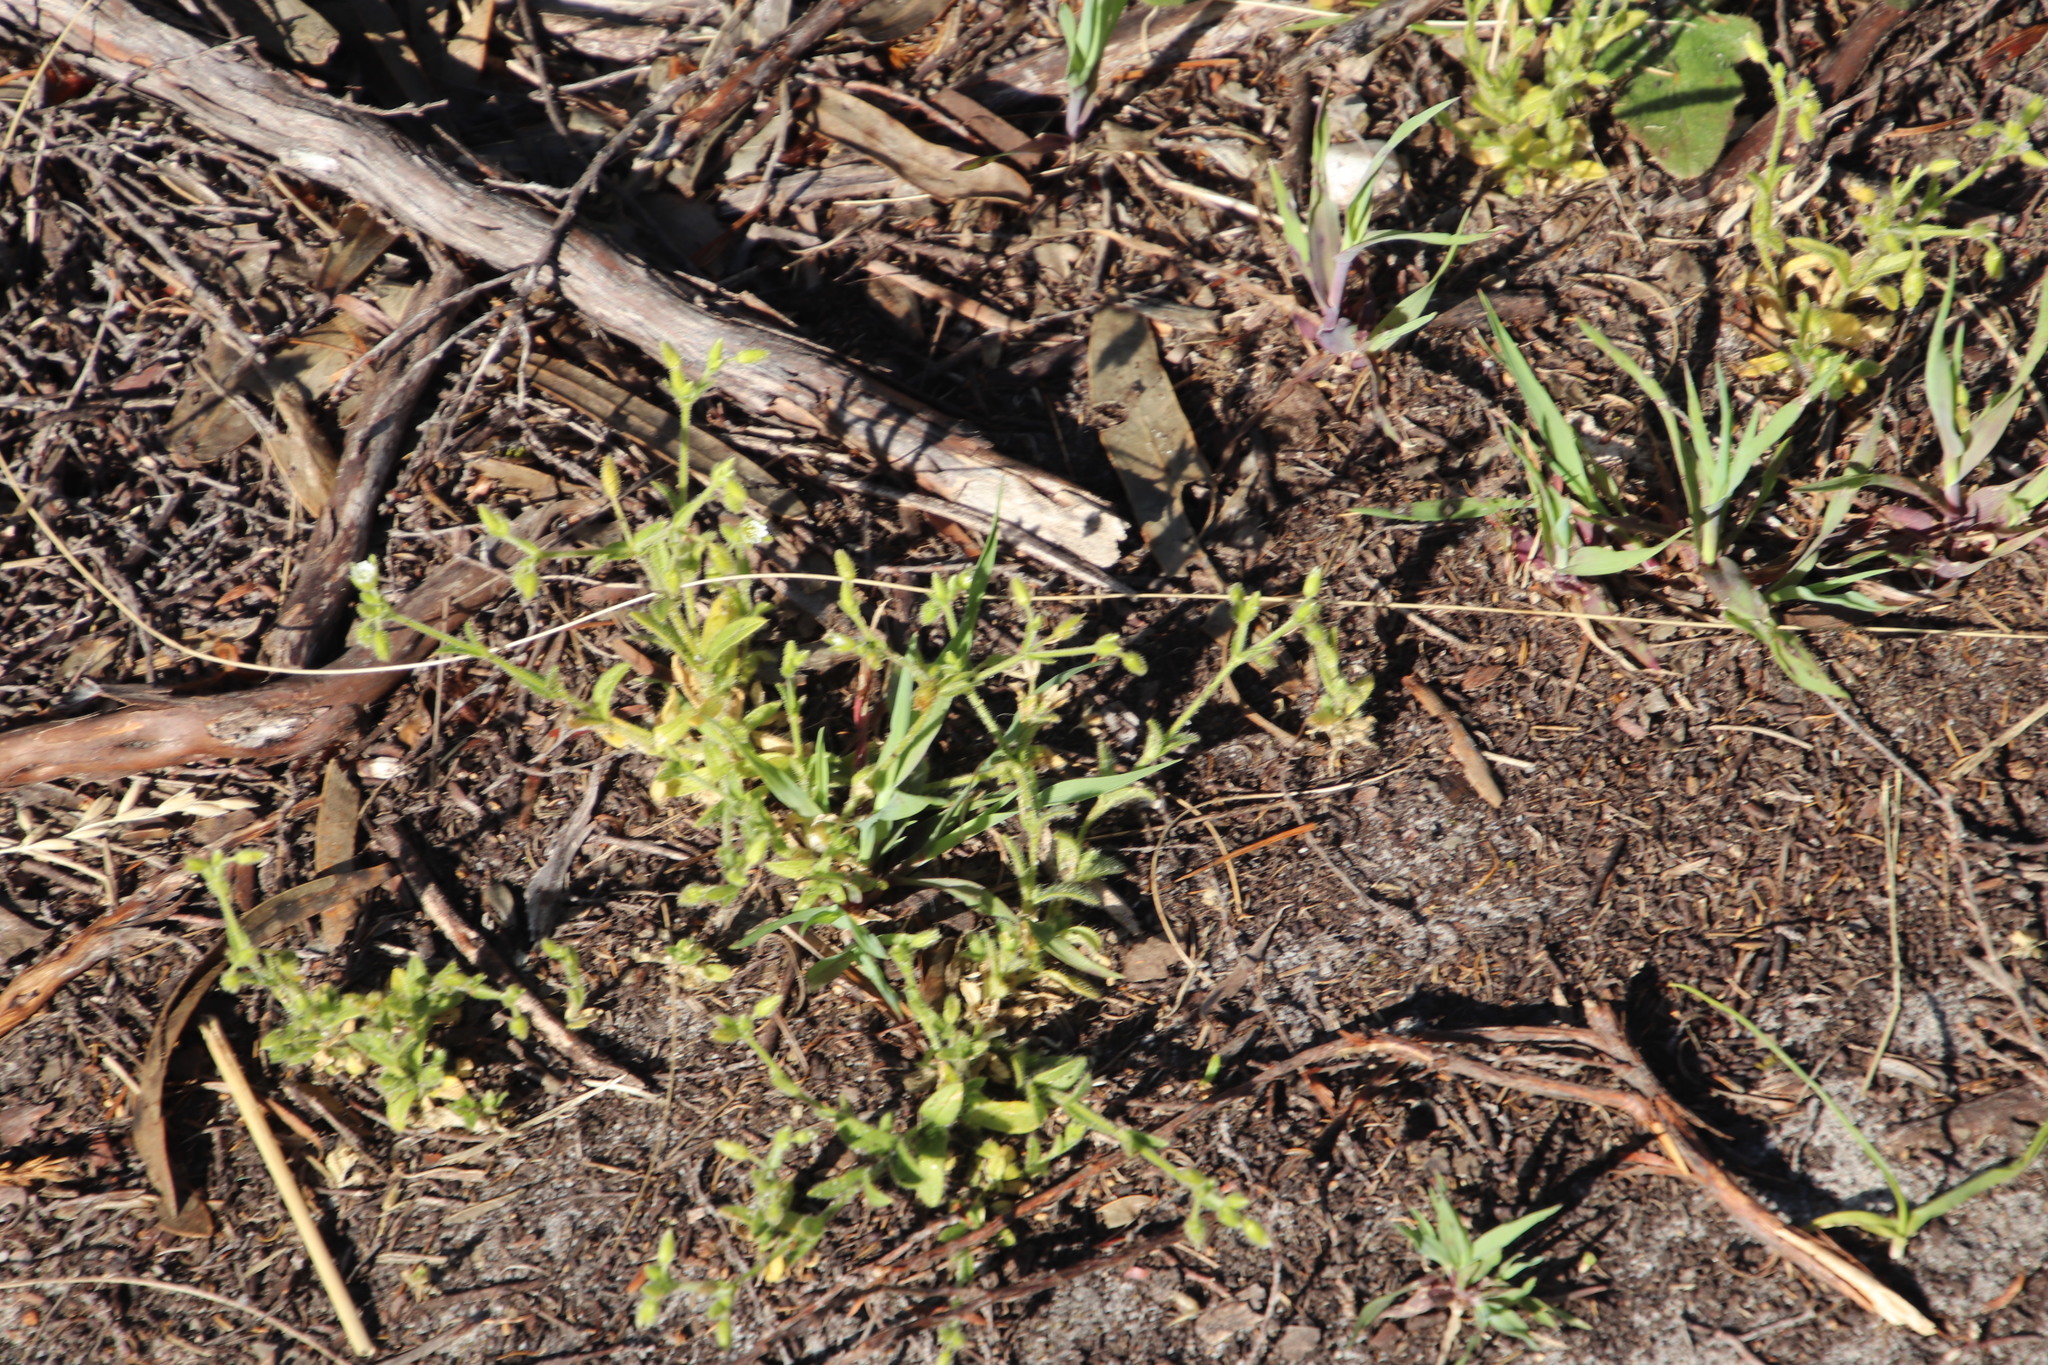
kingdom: Plantae
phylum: Tracheophyta
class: Magnoliopsida
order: Caryophyllales
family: Caryophyllaceae
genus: Cerastium
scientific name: Cerastium capense
